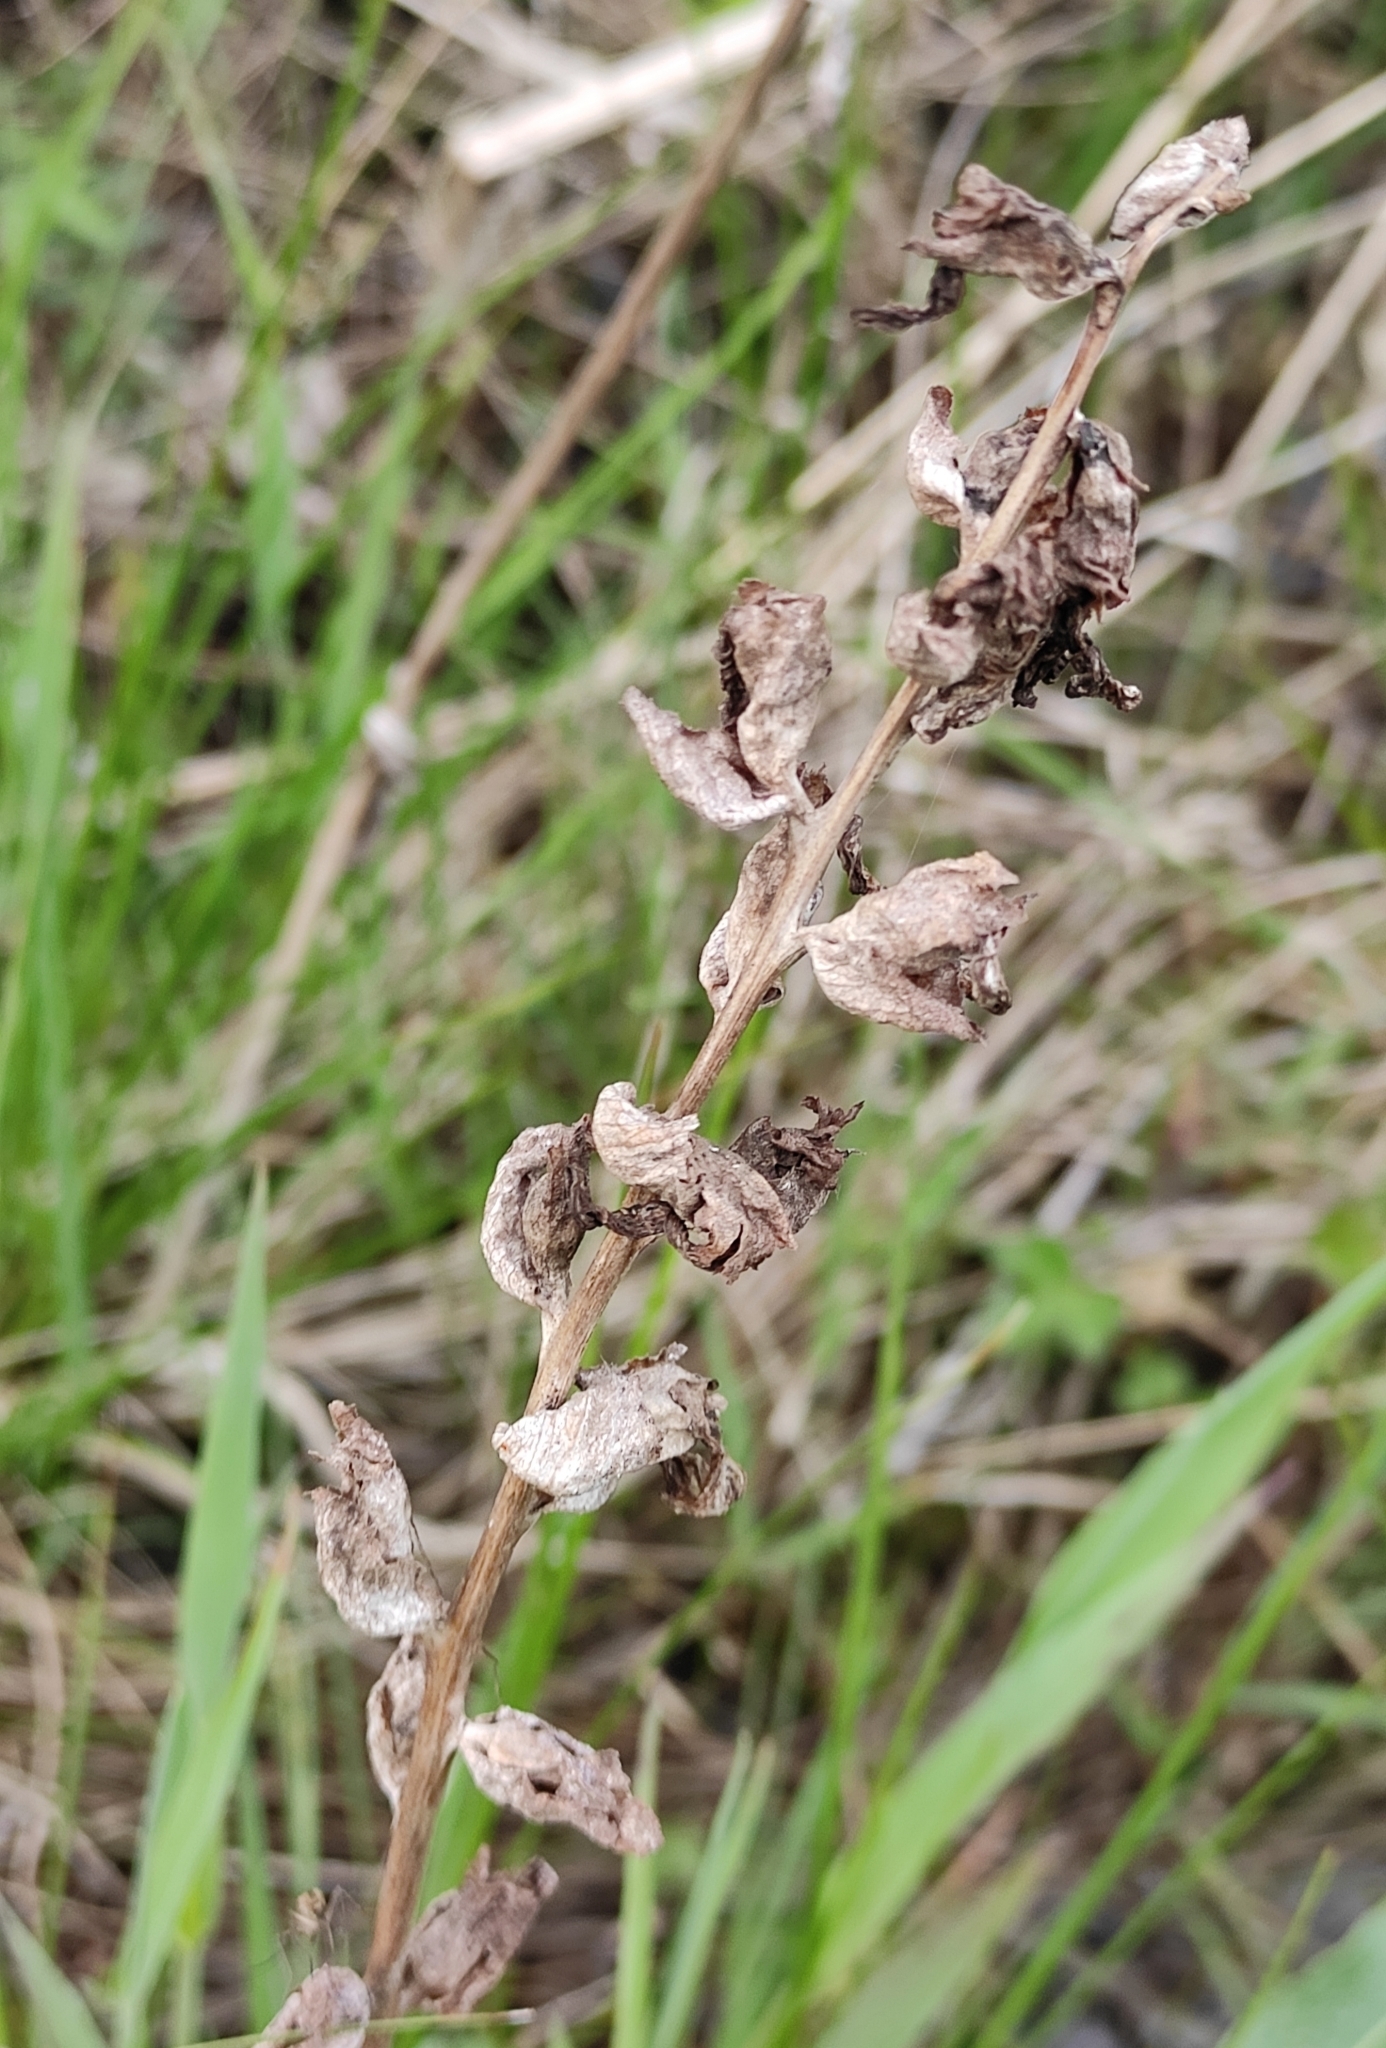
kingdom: Plantae
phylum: Tracheophyta
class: Magnoliopsida
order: Lamiales
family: Orobanchaceae
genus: Pedicularis
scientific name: Pedicularis sceptrum-carolinum
